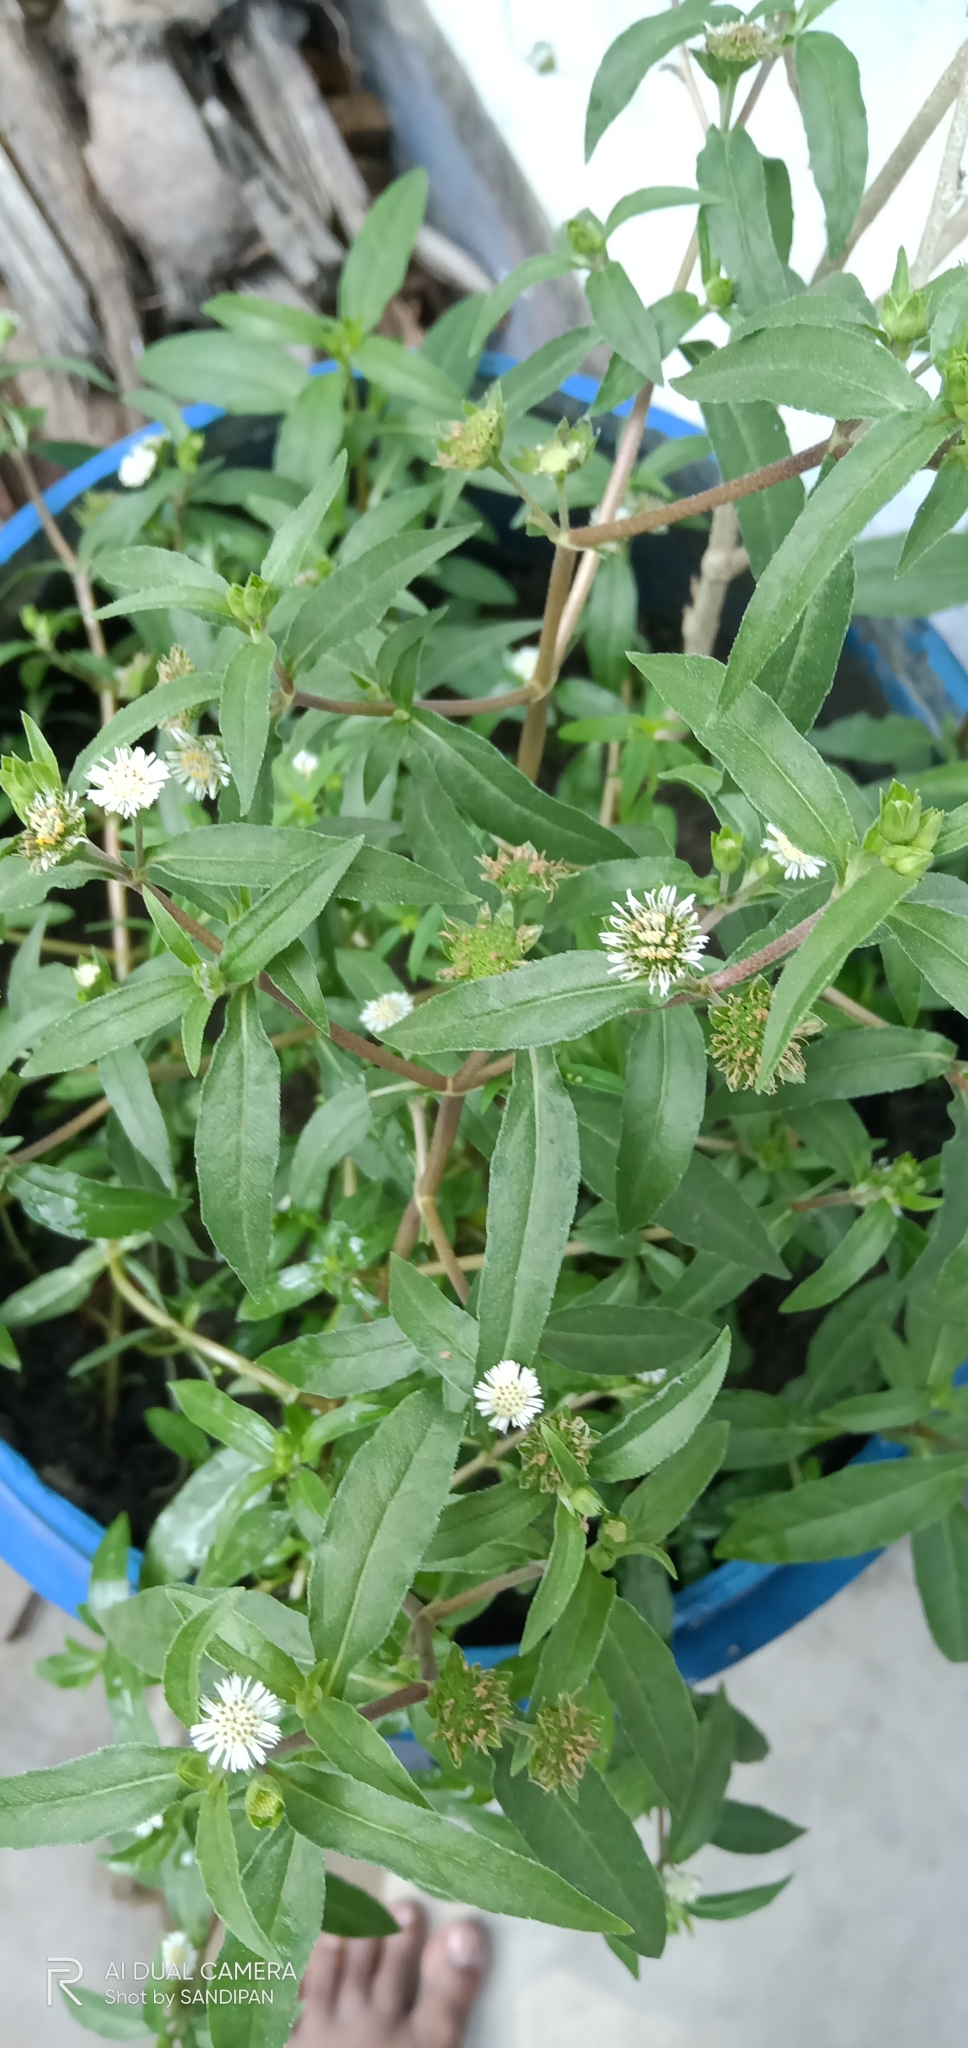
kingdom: Plantae
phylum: Tracheophyta
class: Magnoliopsida
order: Asterales
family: Asteraceae
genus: Eclipta
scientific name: Eclipta prostrata
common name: False daisy
